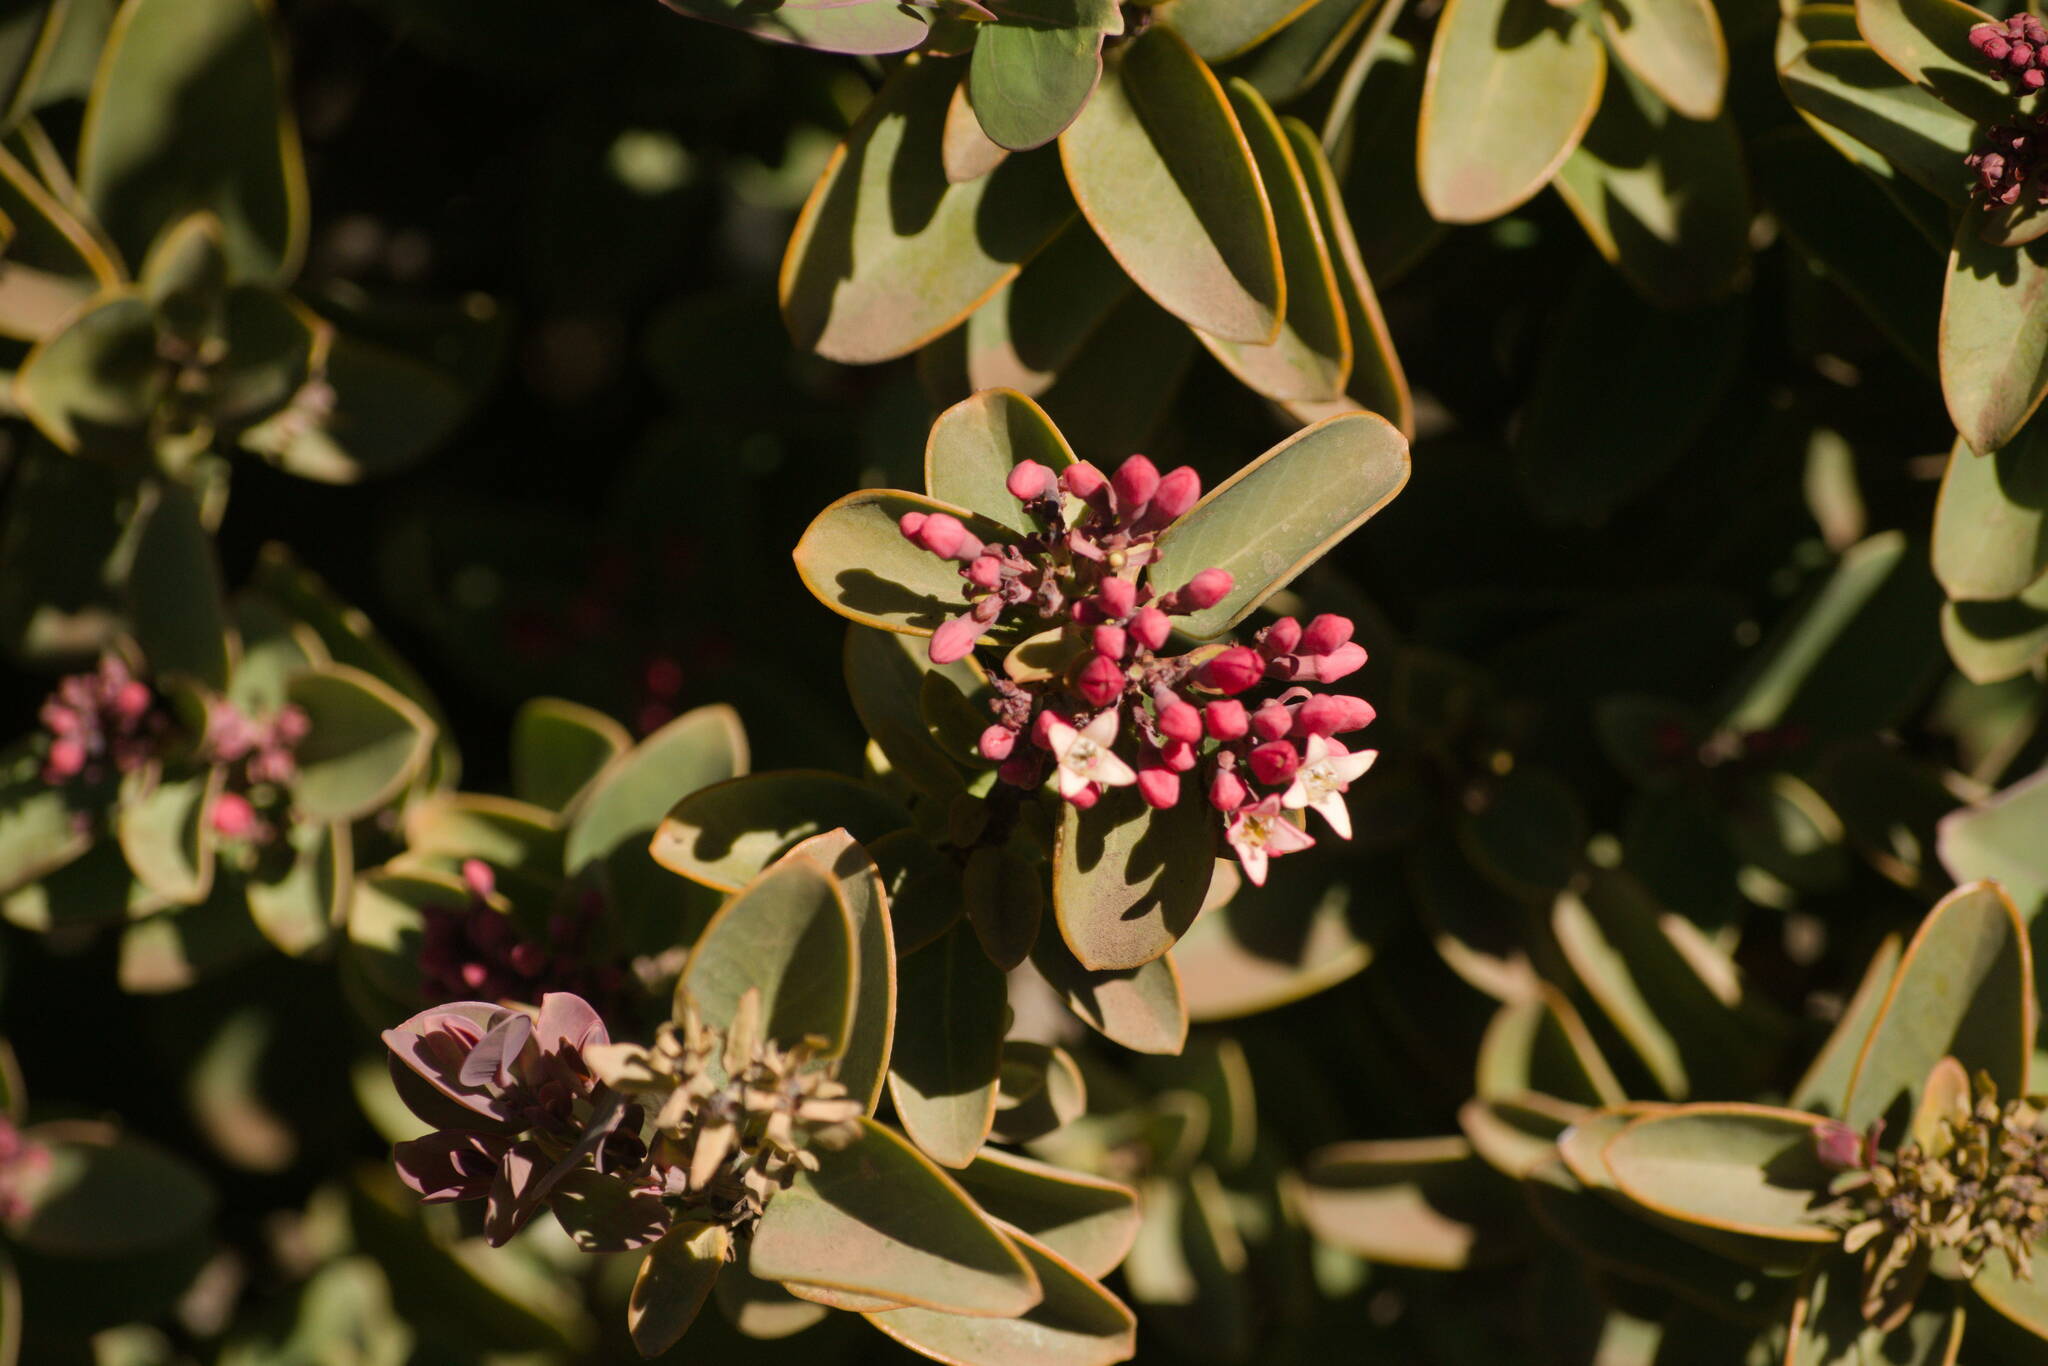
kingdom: Plantae
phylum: Tracheophyta
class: Magnoliopsida
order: Santalales
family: Santalaceae
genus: Santalum
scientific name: Santalum haleakalae
